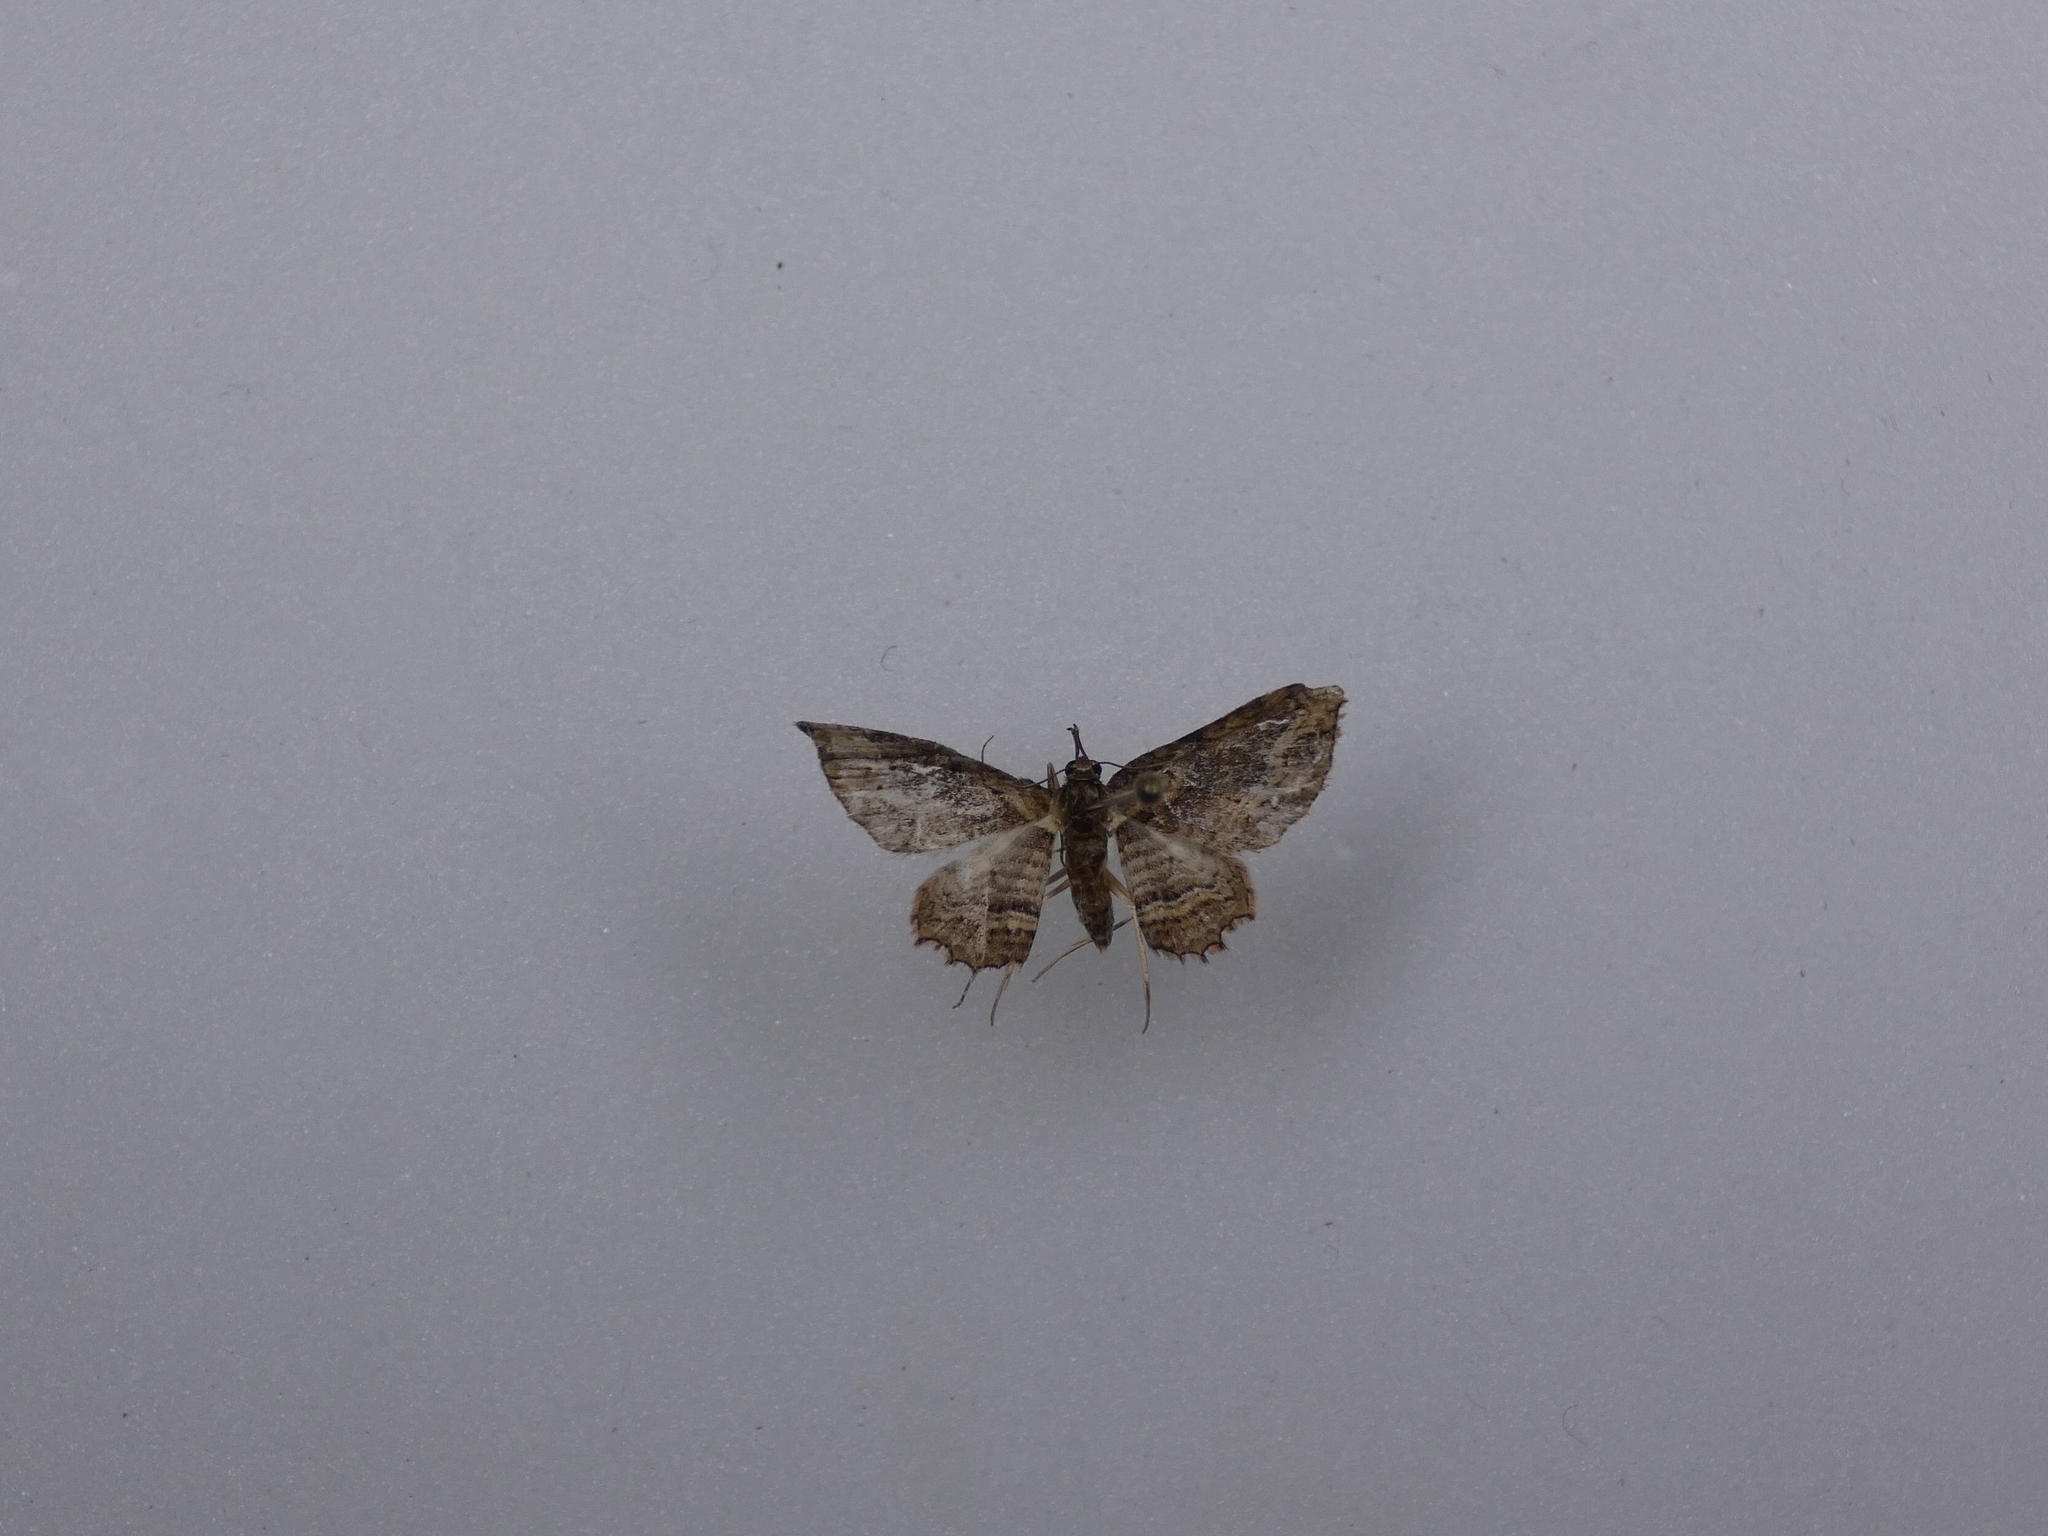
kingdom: Animalia
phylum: Arthropoda
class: Insecta
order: Lepidoptera
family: Geometridae
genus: Chloroclystis
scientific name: Chloroclystis filata
